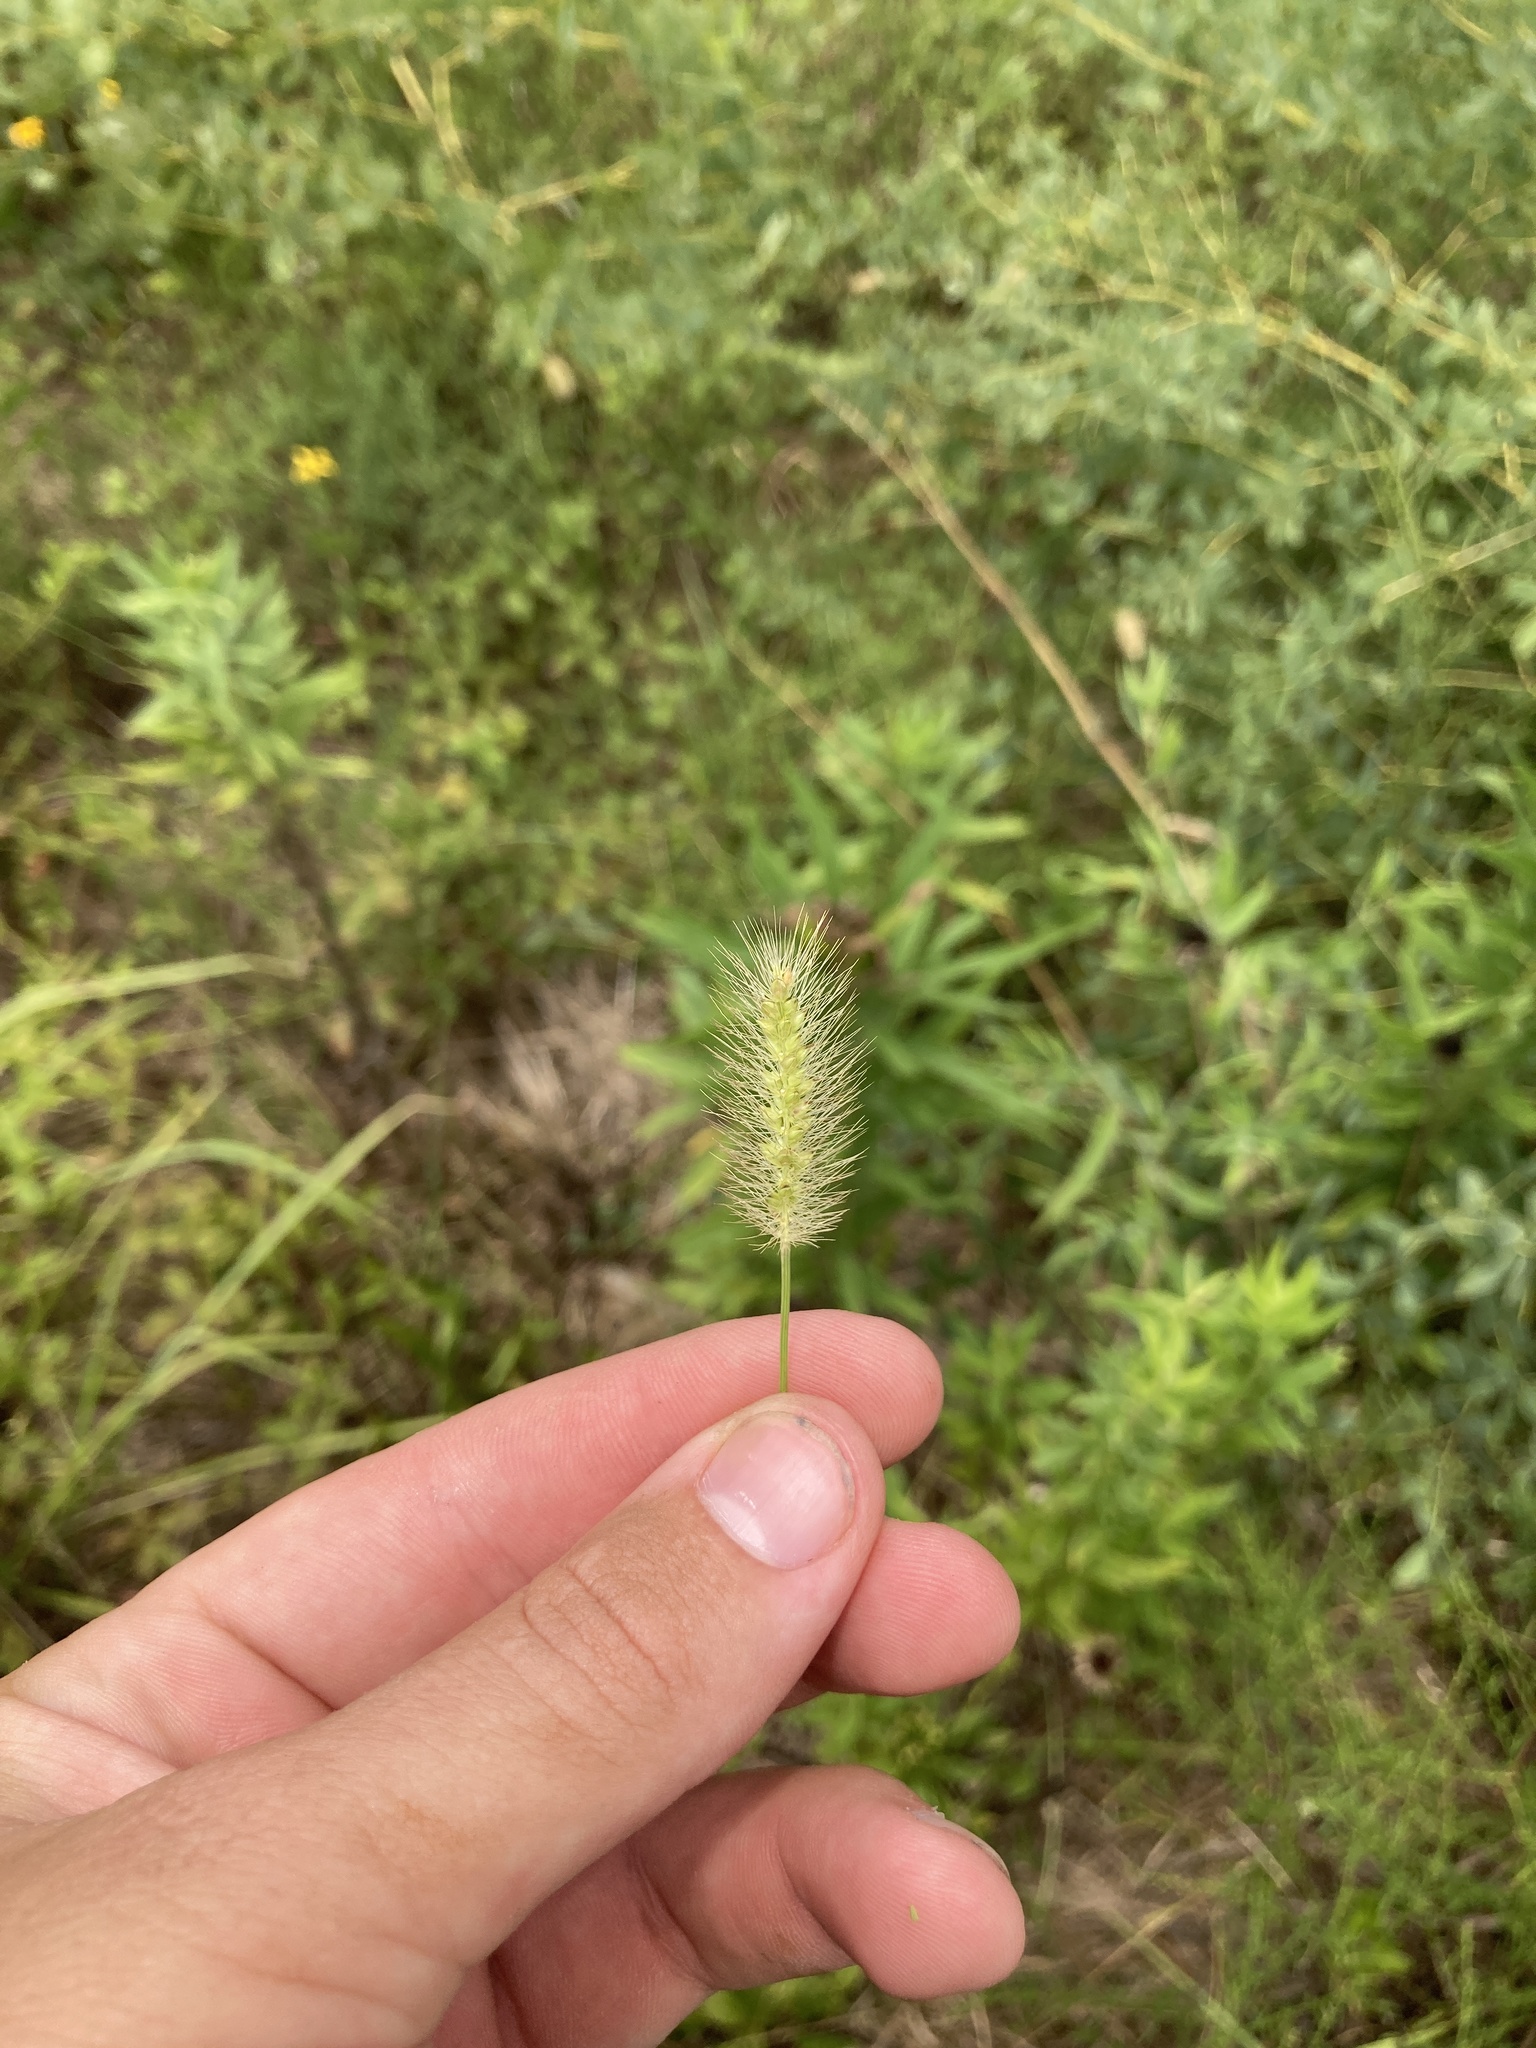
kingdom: Plantae
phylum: Tracheophyta
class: Liliopsida
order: Poales
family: Poaceae
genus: Setaria
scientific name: Setaria parviflora
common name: Knotroot bristle-grass
